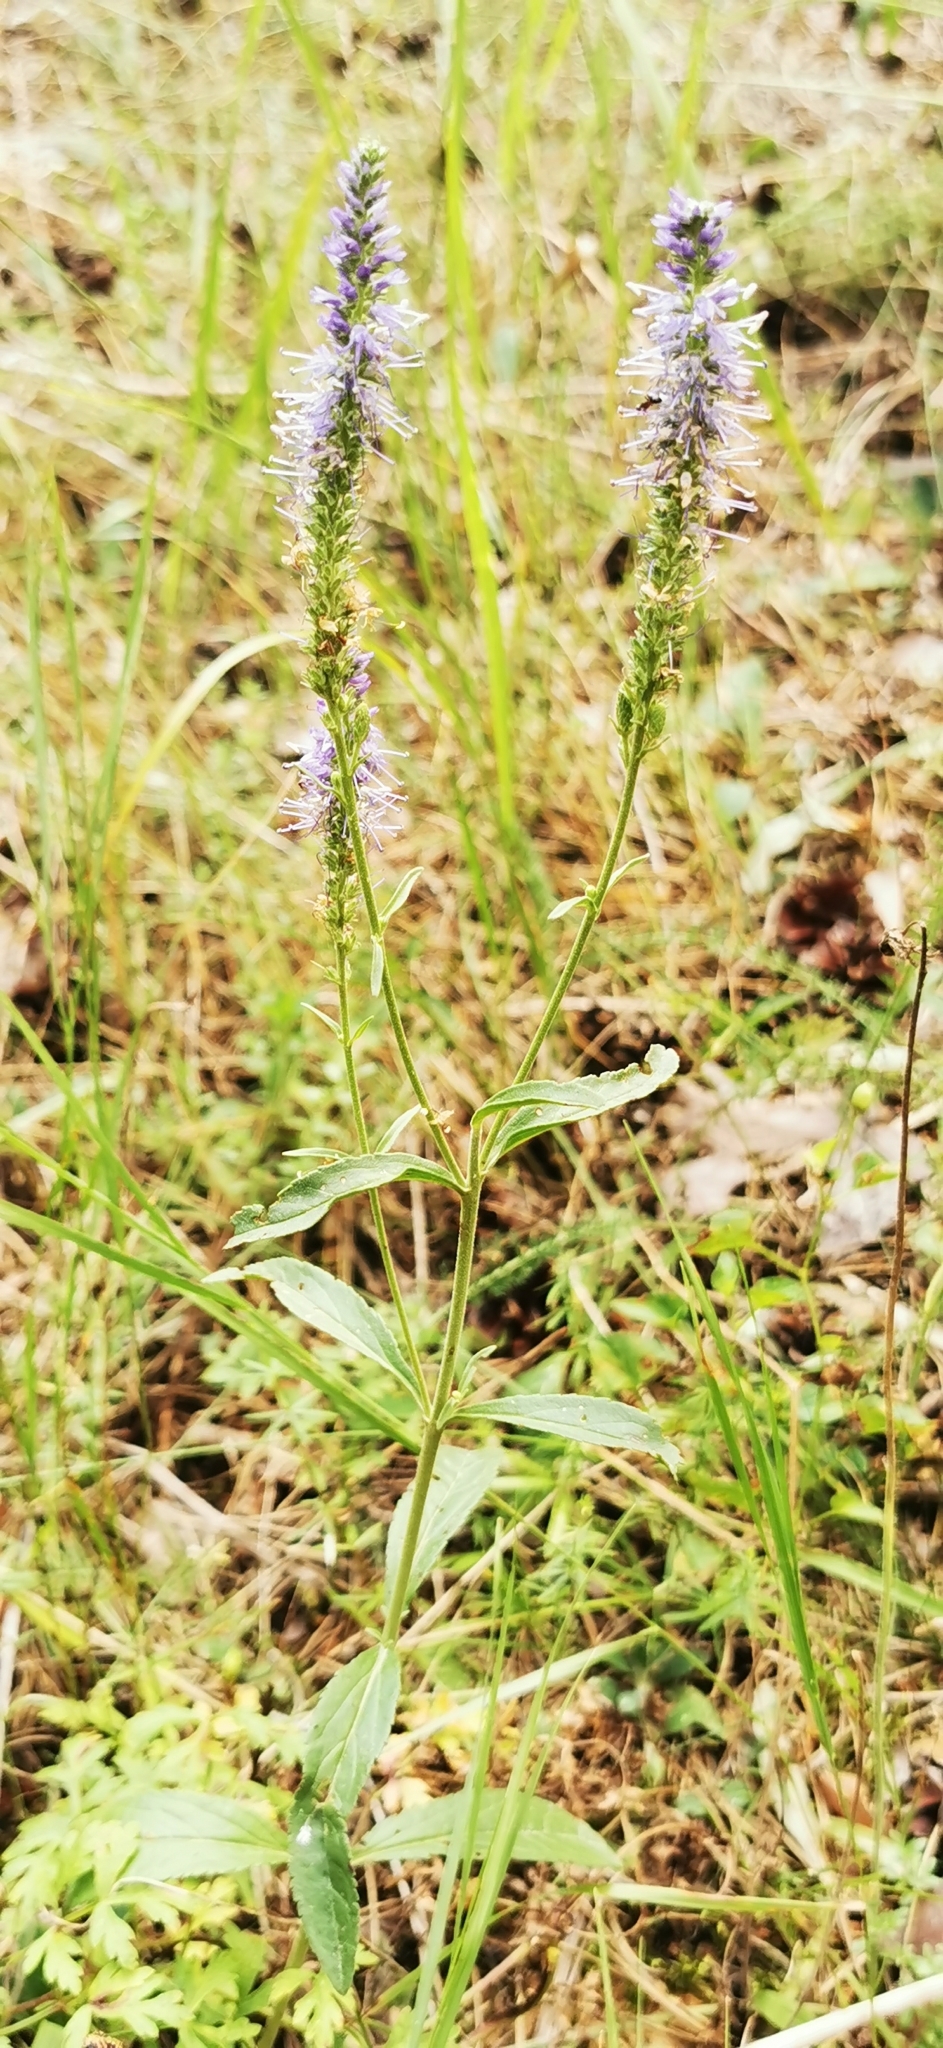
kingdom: Plantae
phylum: Tracheophyta
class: Magnoliopsida
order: Lamiales
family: Plantaginaceae
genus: Veronica
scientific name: Veronica spicata
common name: Spiked speedwell
